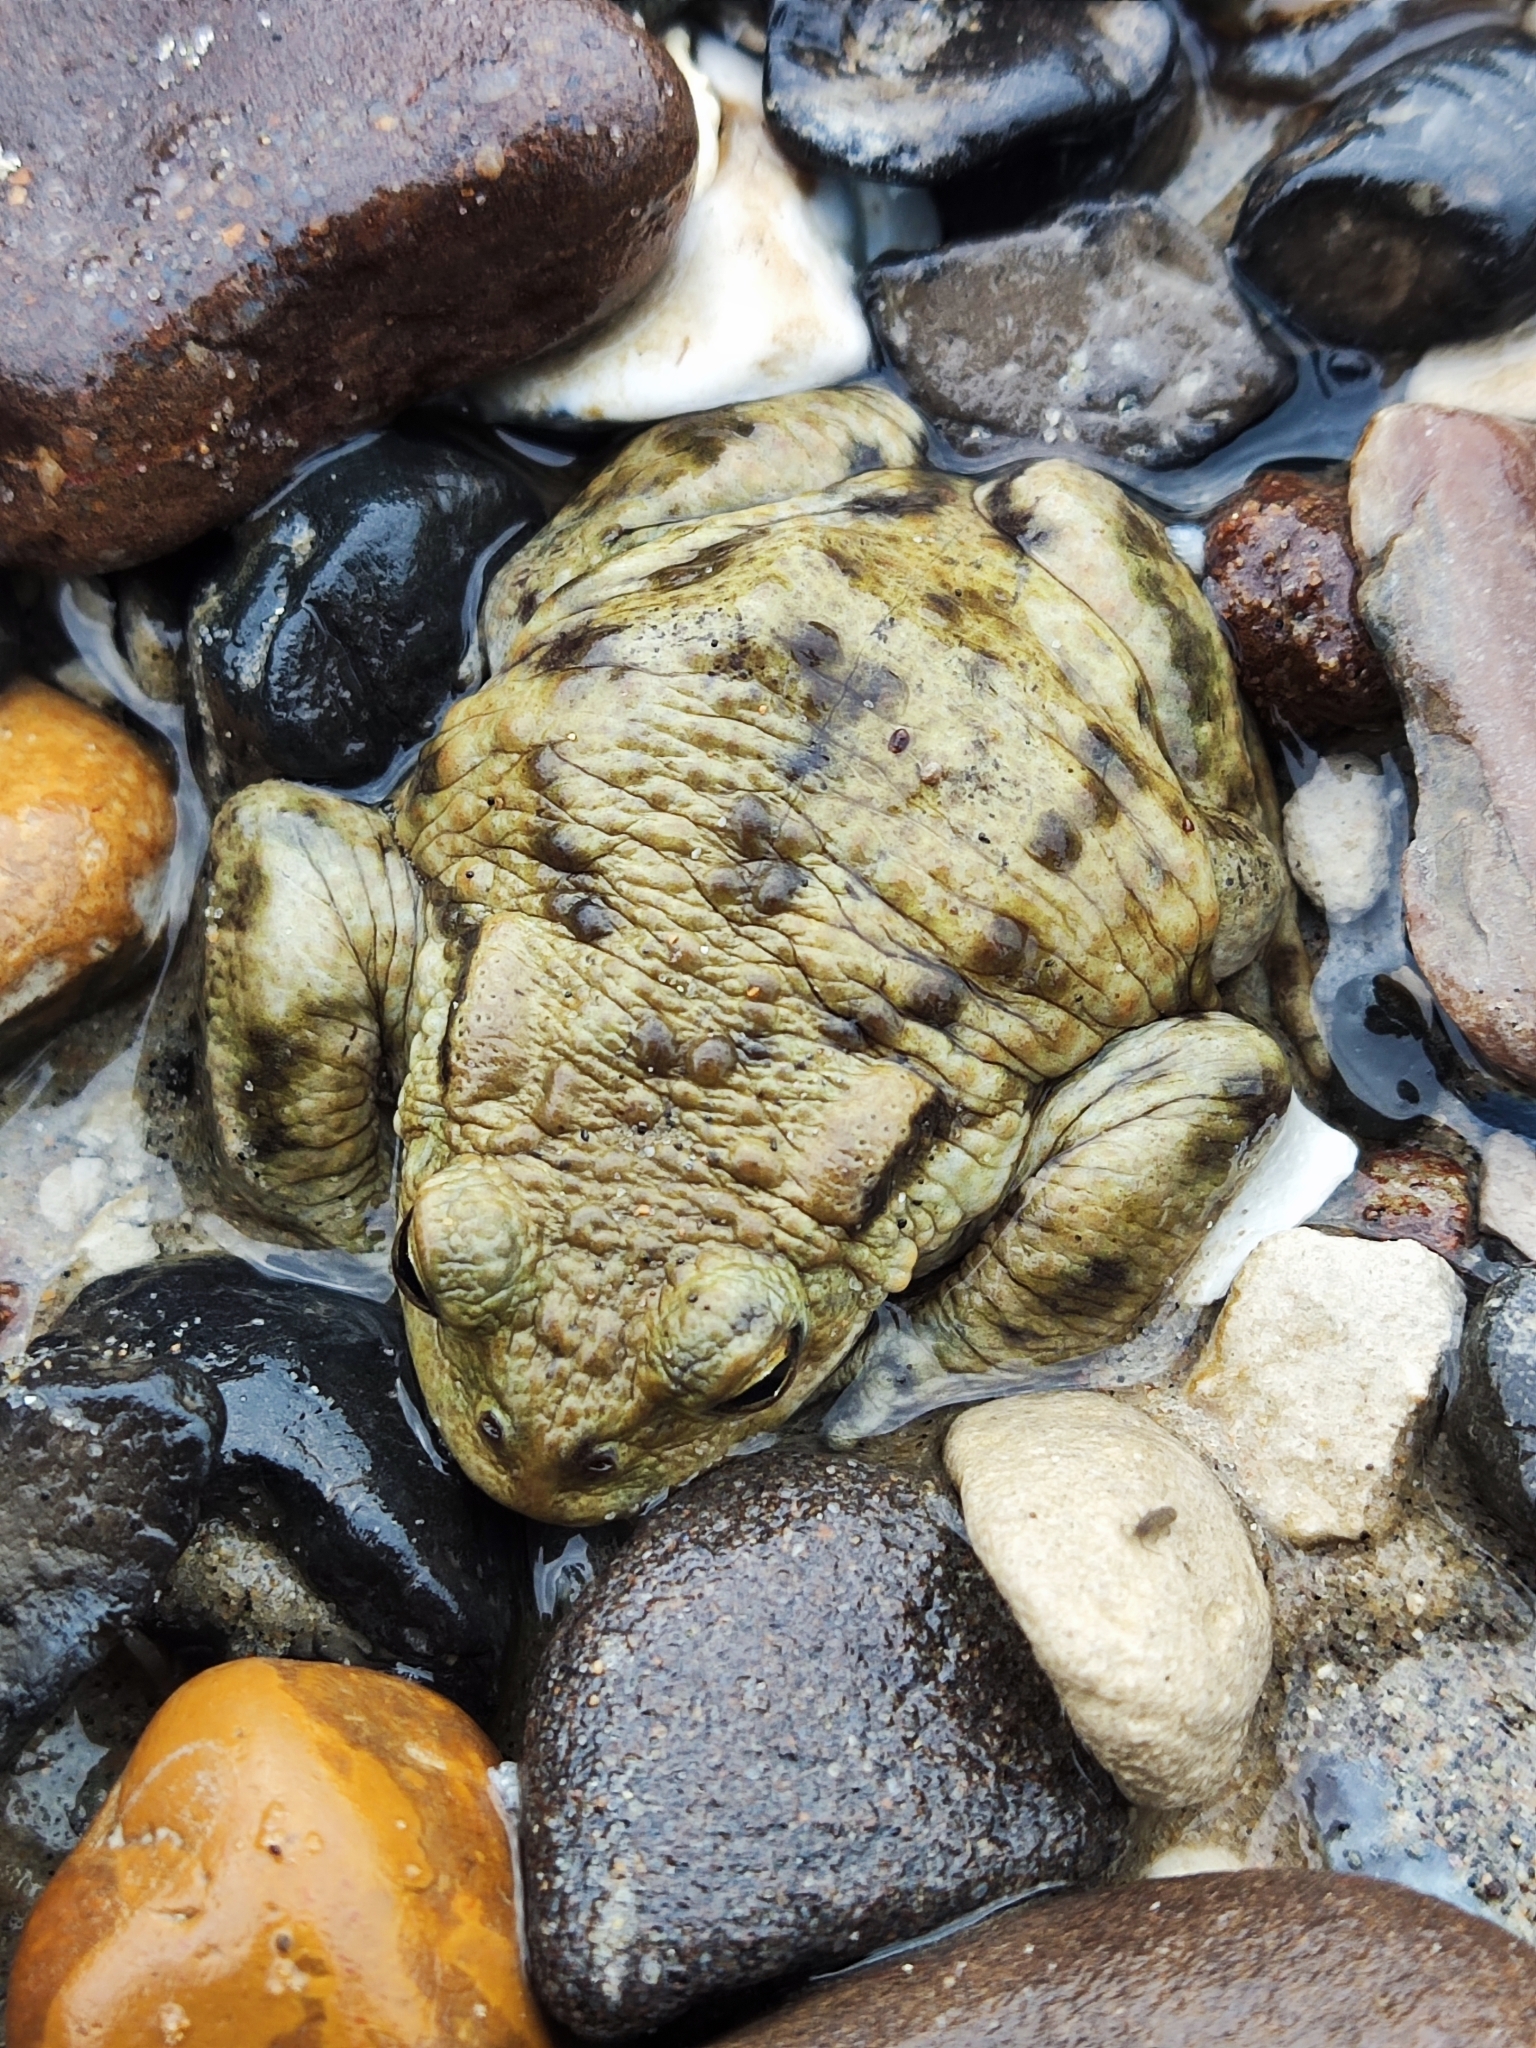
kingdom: Animalia
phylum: Chordata
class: Amphibia
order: Anura
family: Bufonidae
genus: Bufo
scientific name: Bufo bufo
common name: Common toad
